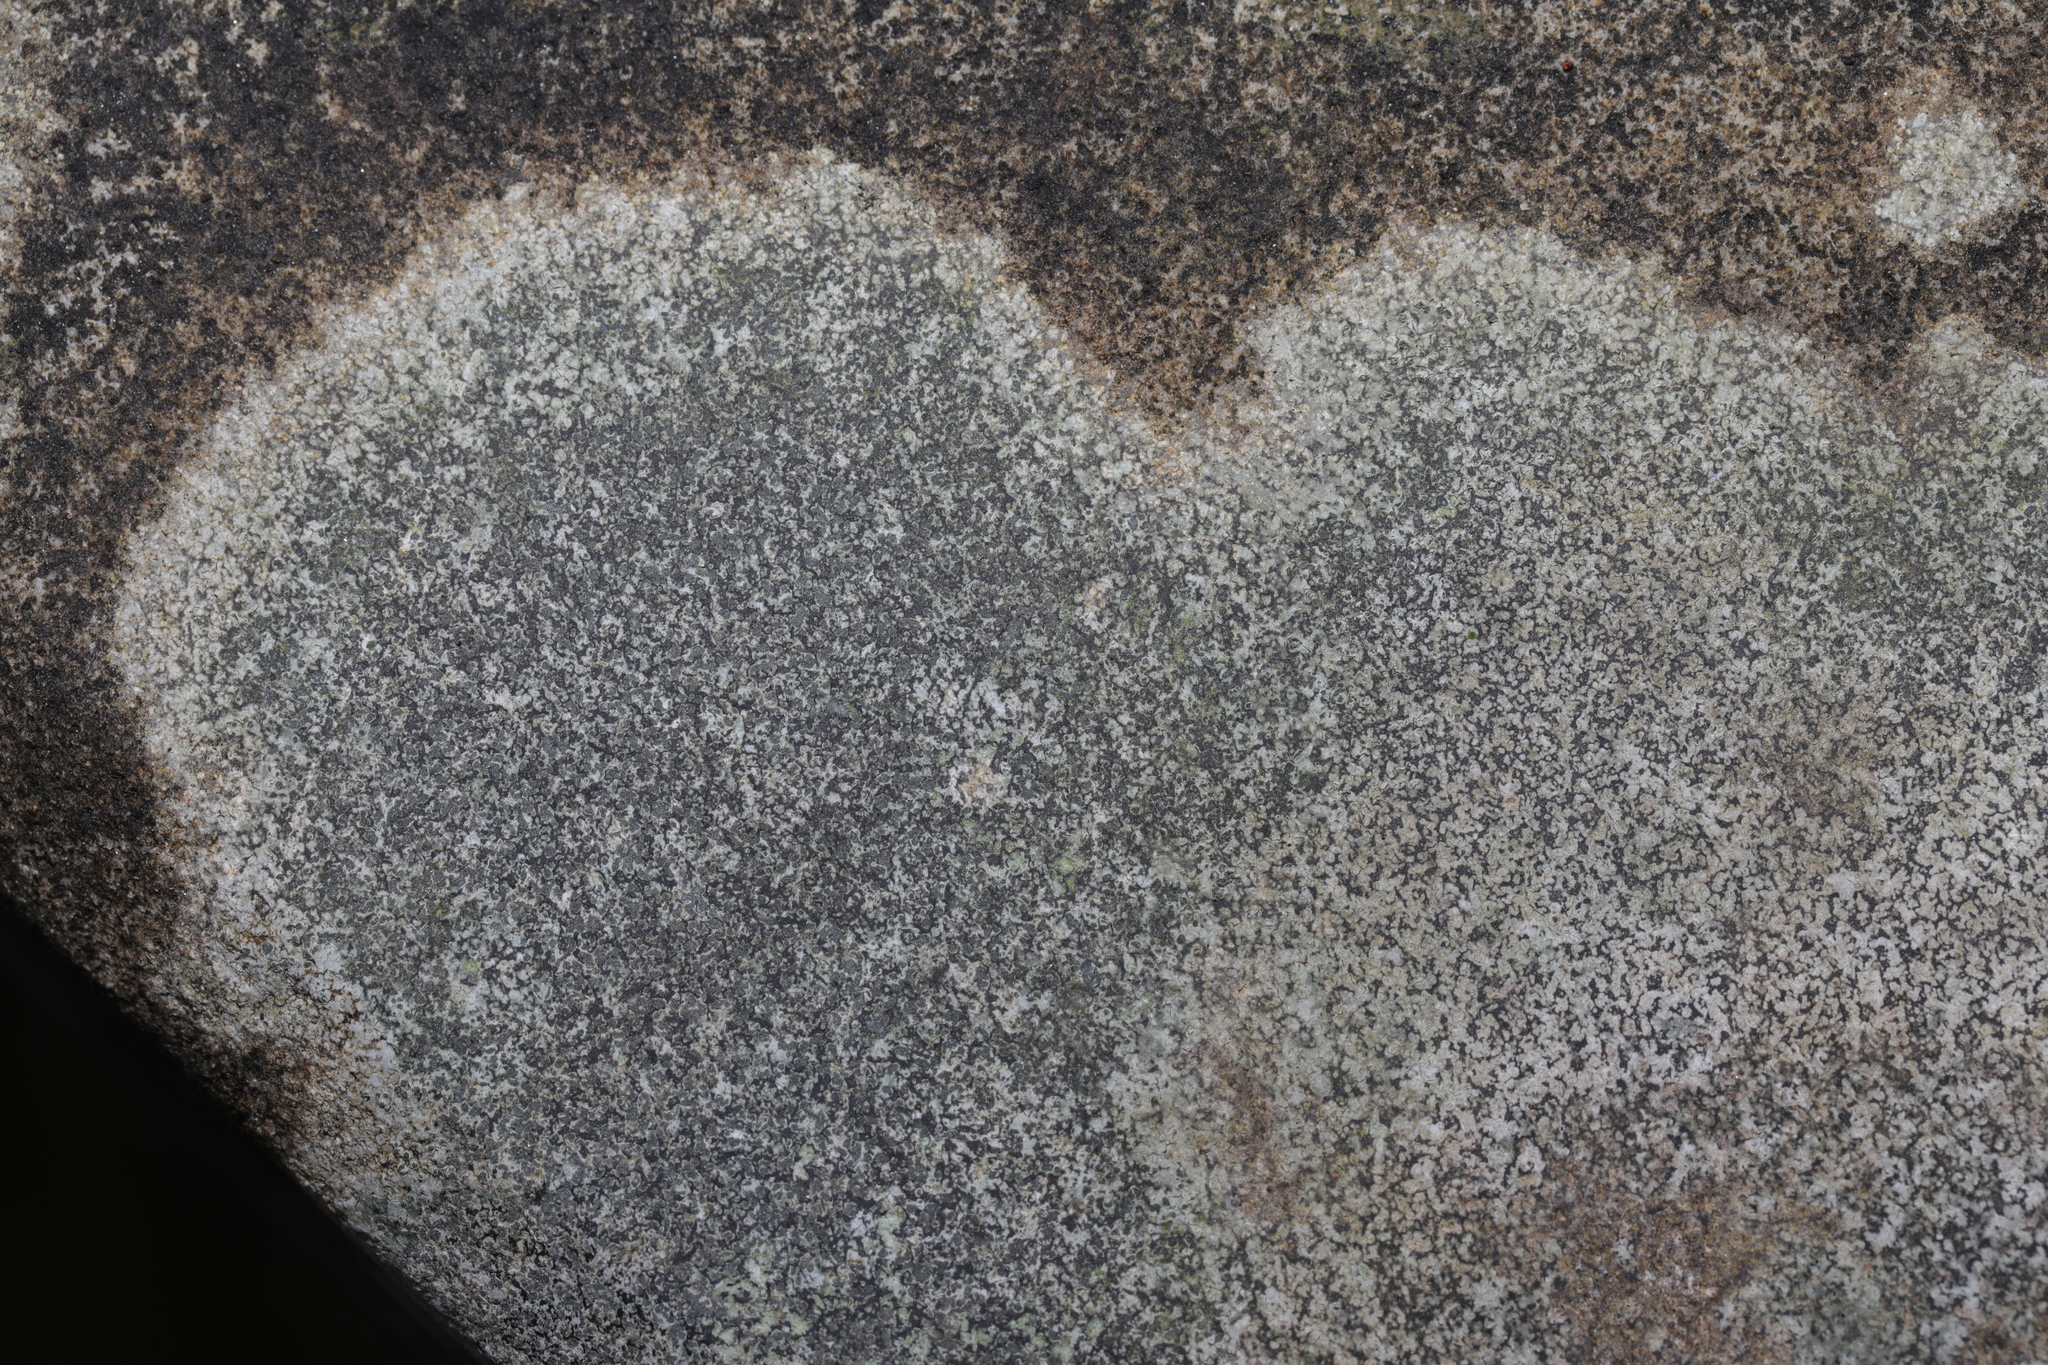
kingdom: Fungi
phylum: Ascomycota
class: Lecanoromycetes
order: Lecideales
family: Lecideaceae
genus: Porpidia
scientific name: Porpidia
